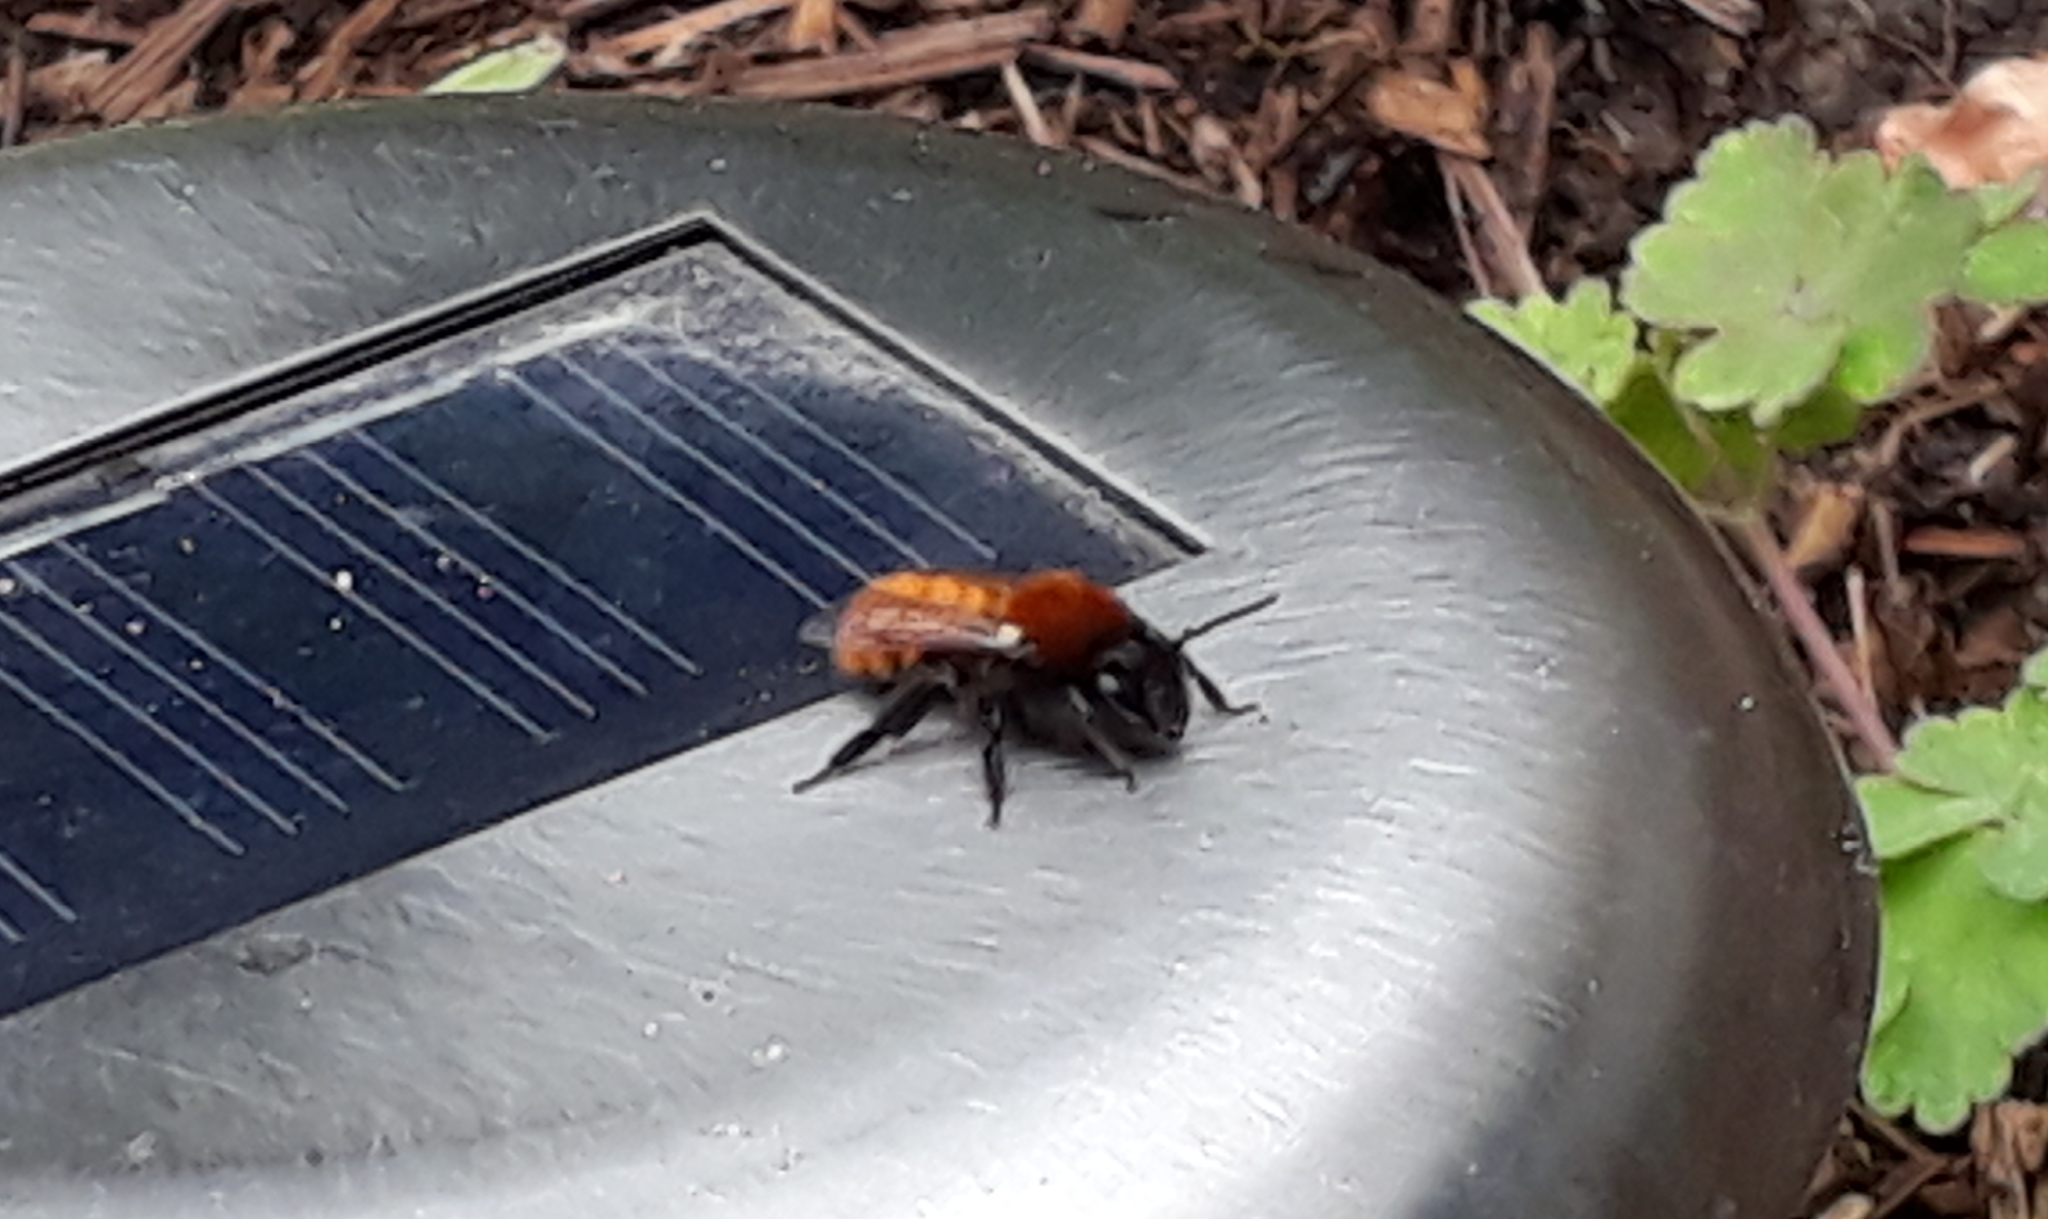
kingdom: Animalia
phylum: Arthropoda
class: Insecta
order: Hymenoptera
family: Andrenidae
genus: Andrena
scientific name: Andrena fulva
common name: Tawny mining bee
